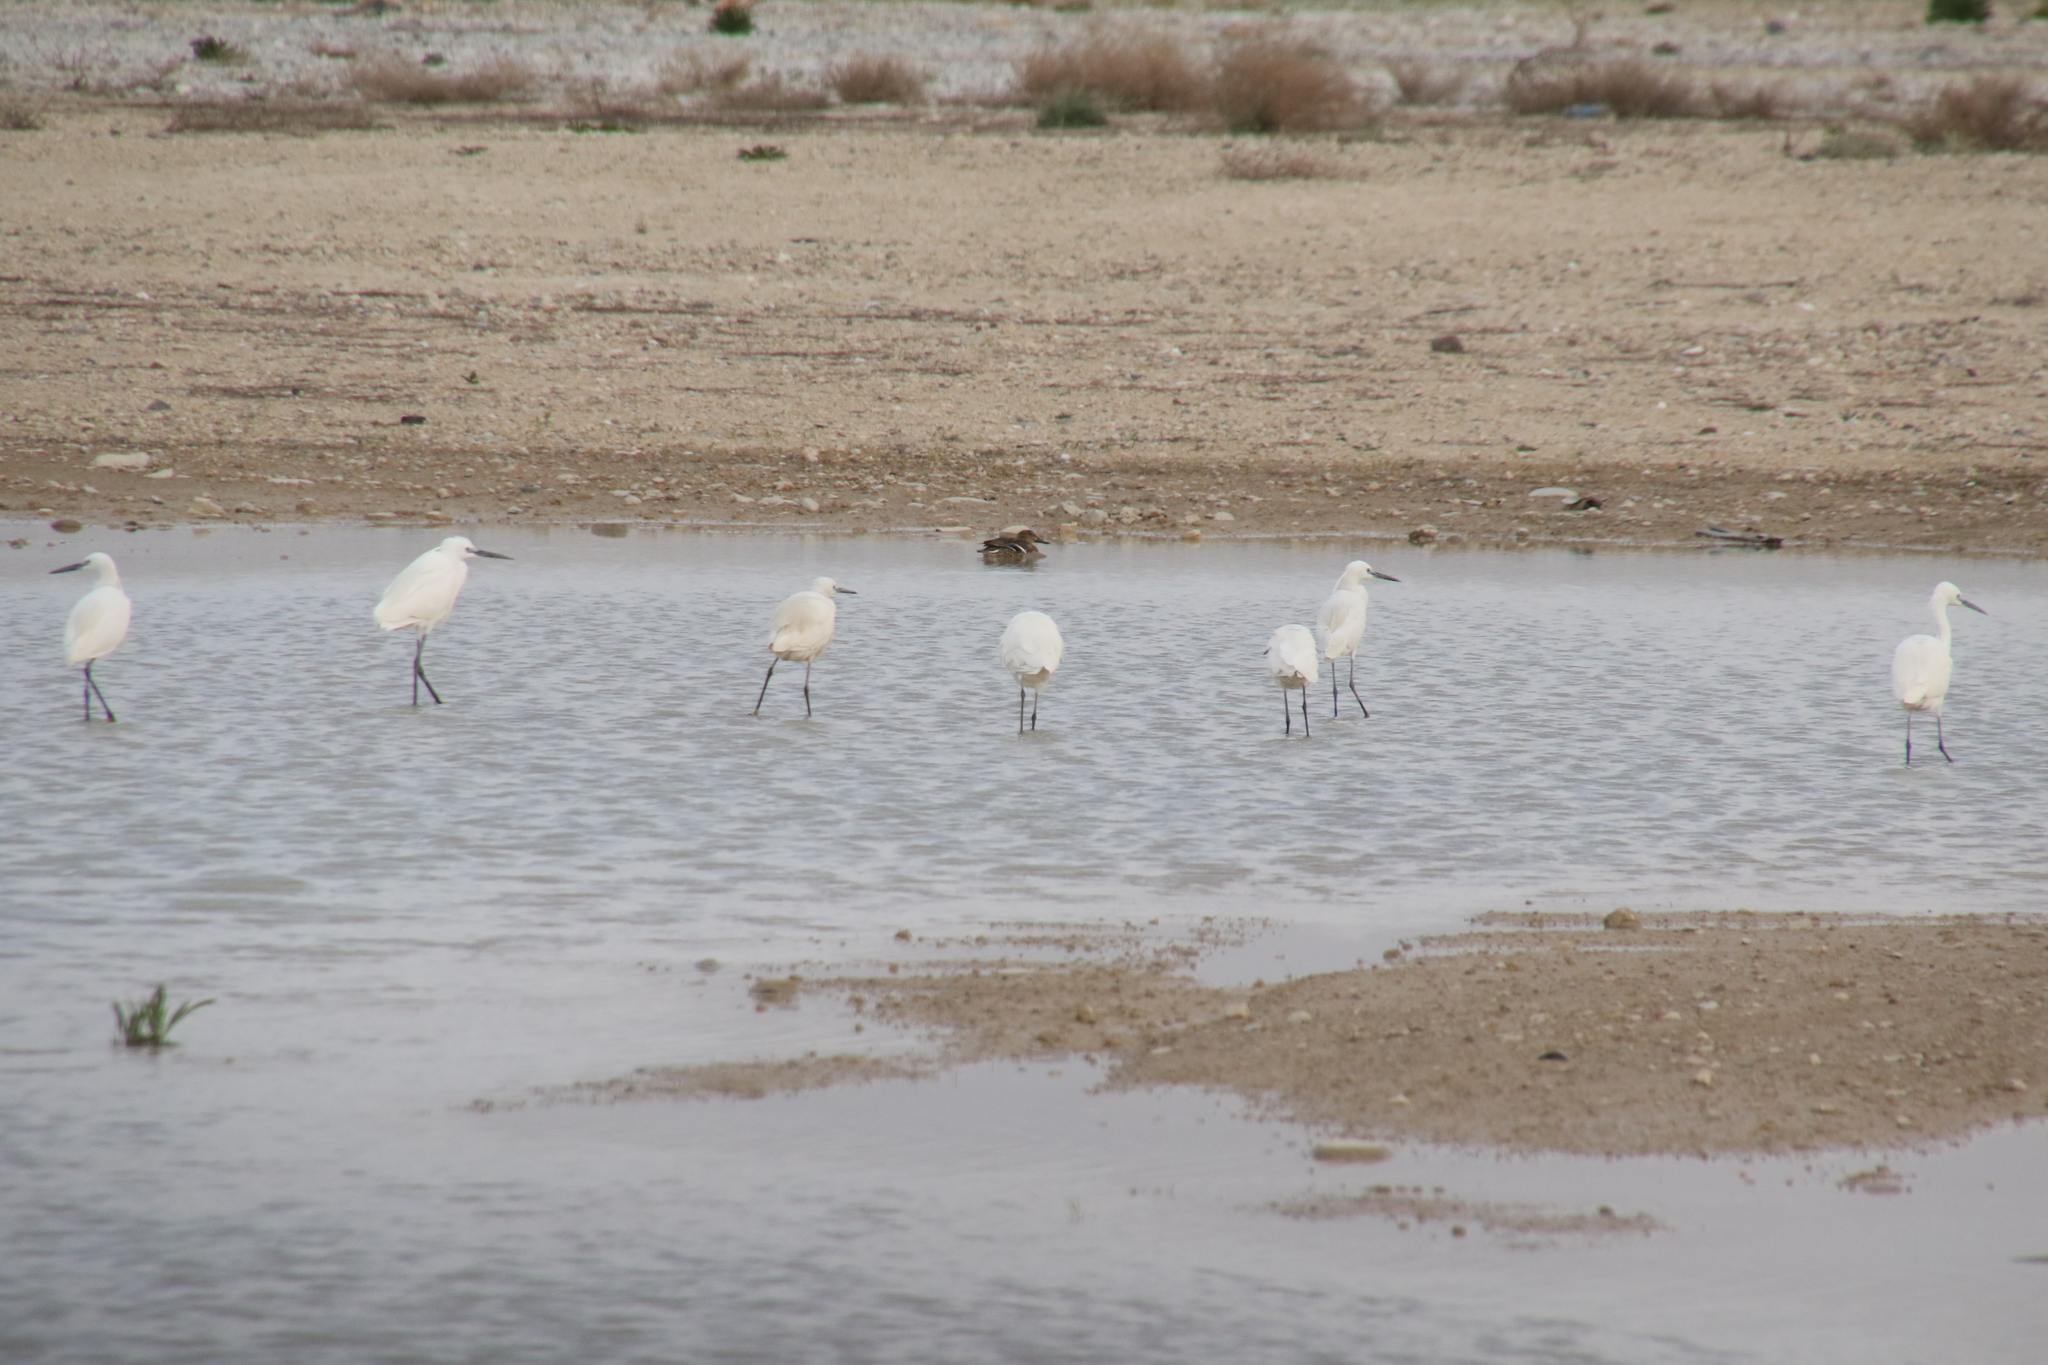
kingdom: Animalia
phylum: Chordata
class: Aves
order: Pelecaniformes
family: Ardeidae
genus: Egretta
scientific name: Egretta garzetta
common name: Little egret
